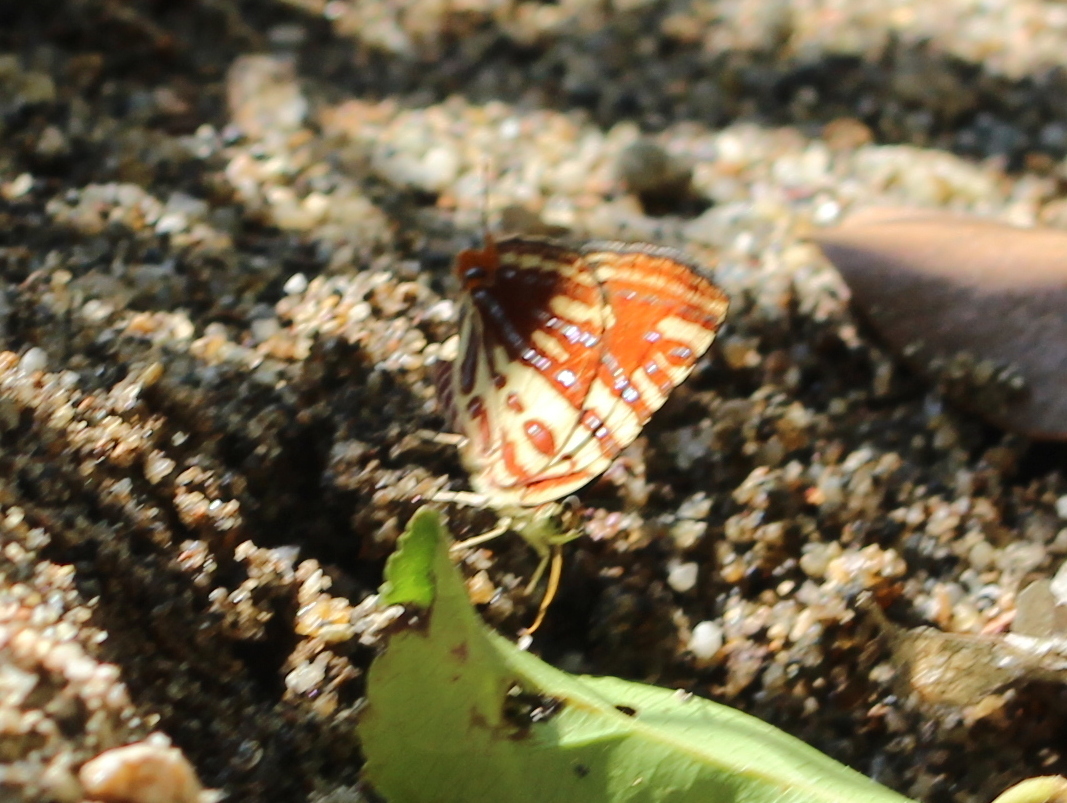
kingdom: Animalia
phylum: Arthropoda
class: Insecta
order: Lepidoptera
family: Lycaenidae
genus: Cigaritis
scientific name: Cigaritis lohita
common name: Long-banded silverline
